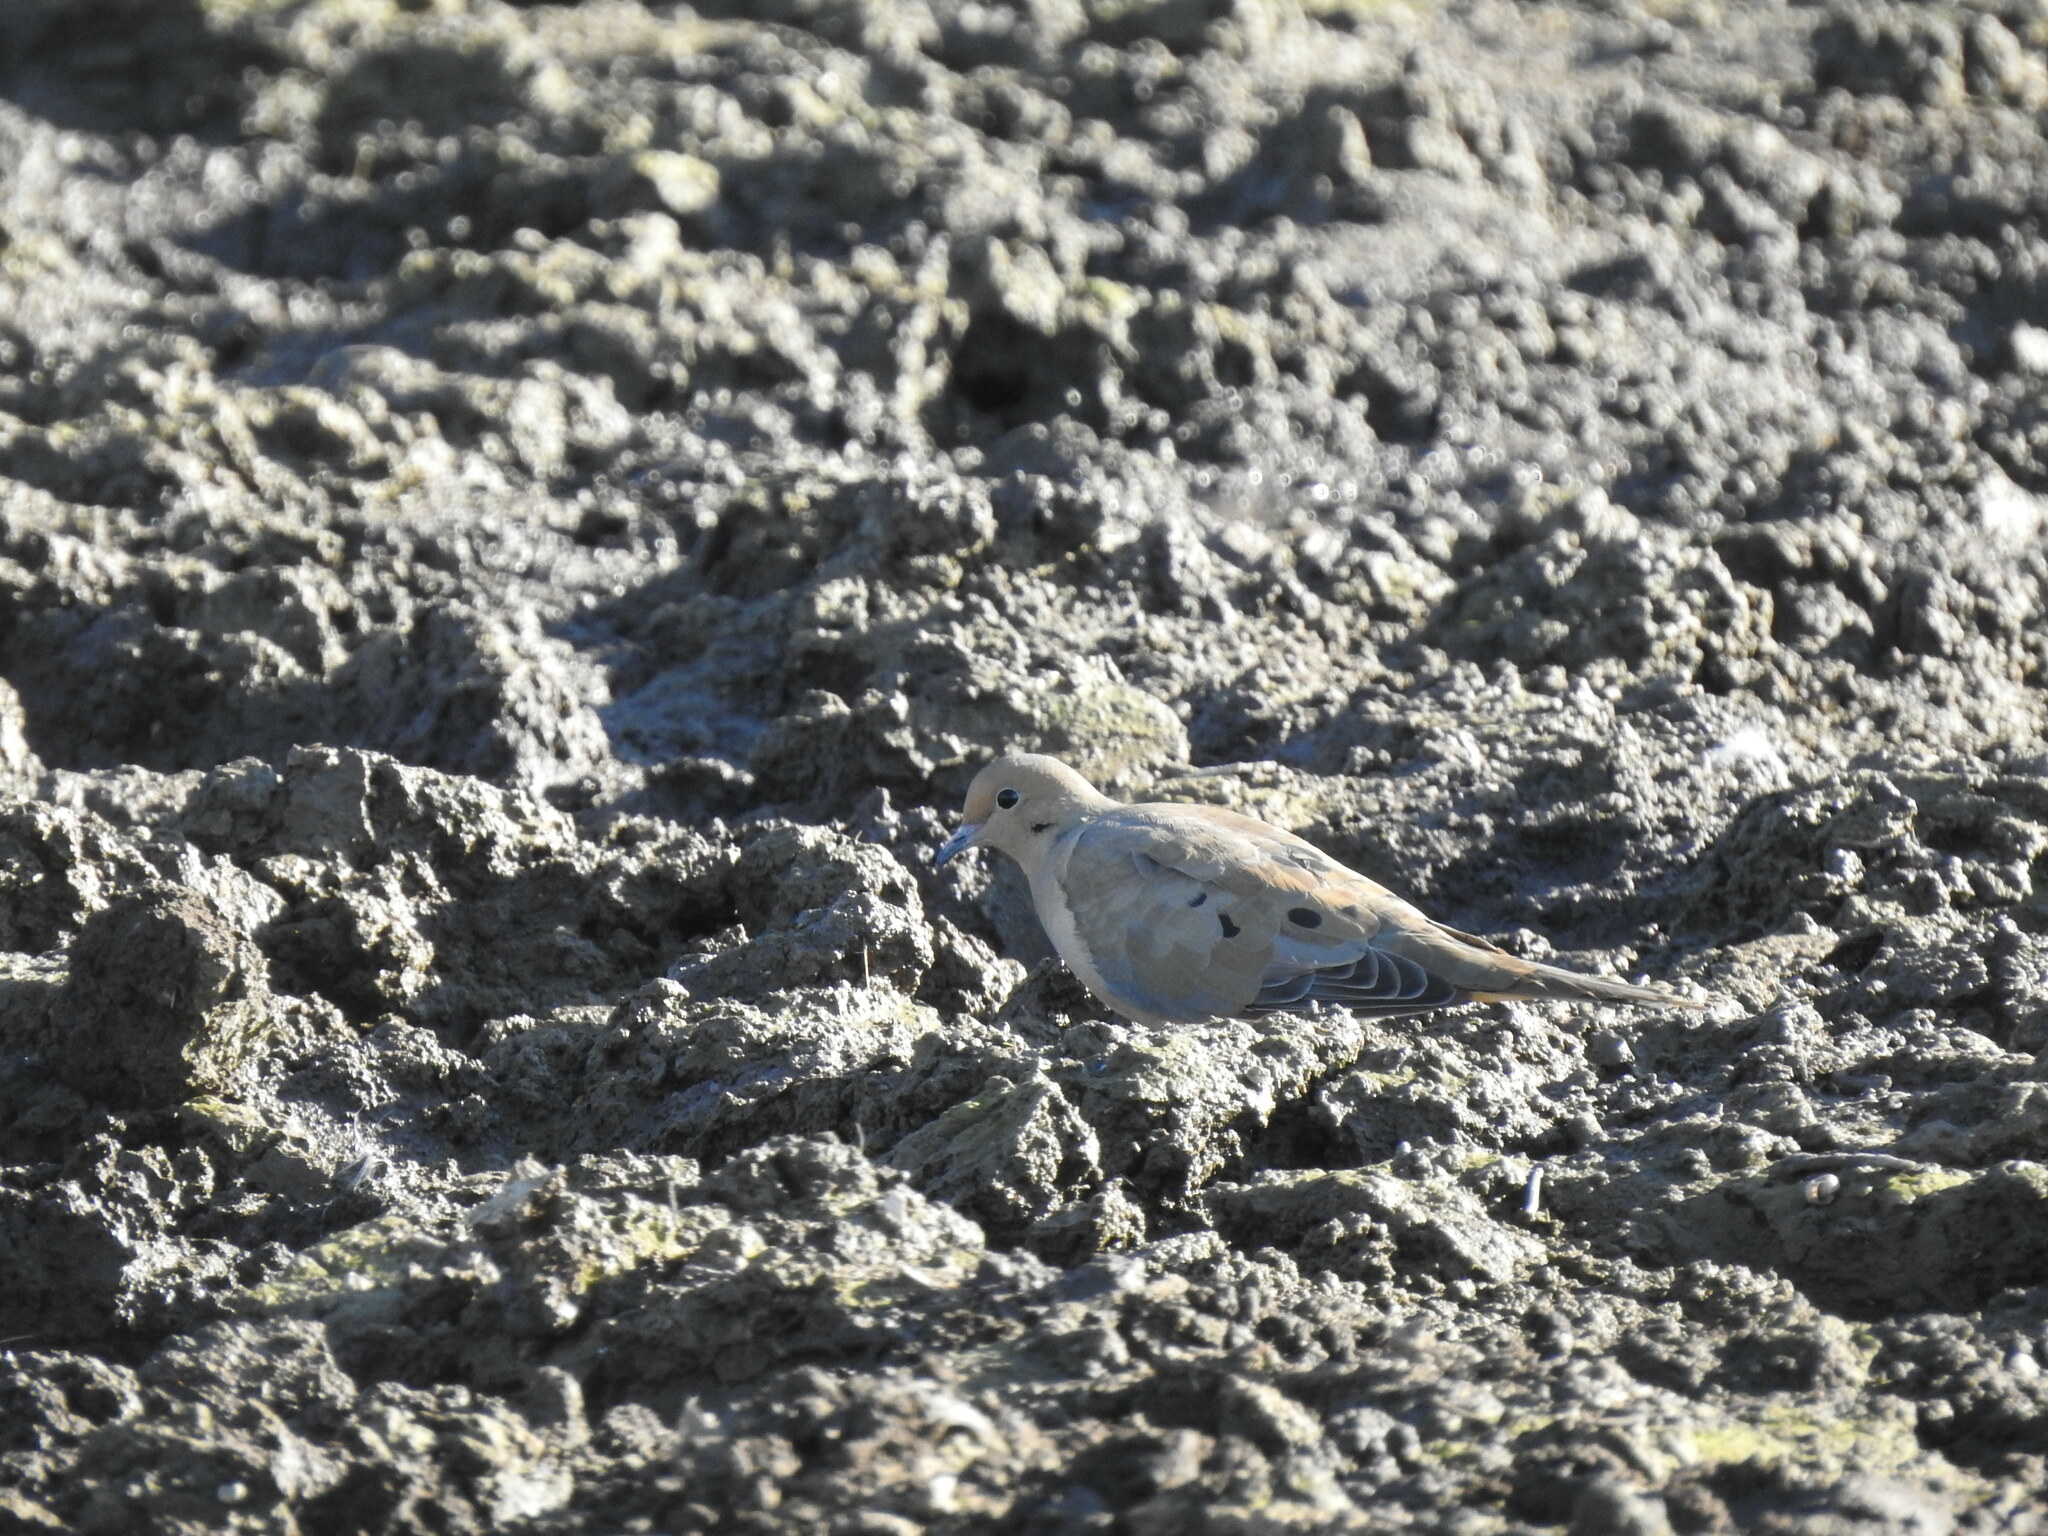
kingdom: Animalia
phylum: Chordata
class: Aves
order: Columbiformes
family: Columbidae
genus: Zenaida
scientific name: Zenaida macroura
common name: Mourning dove
